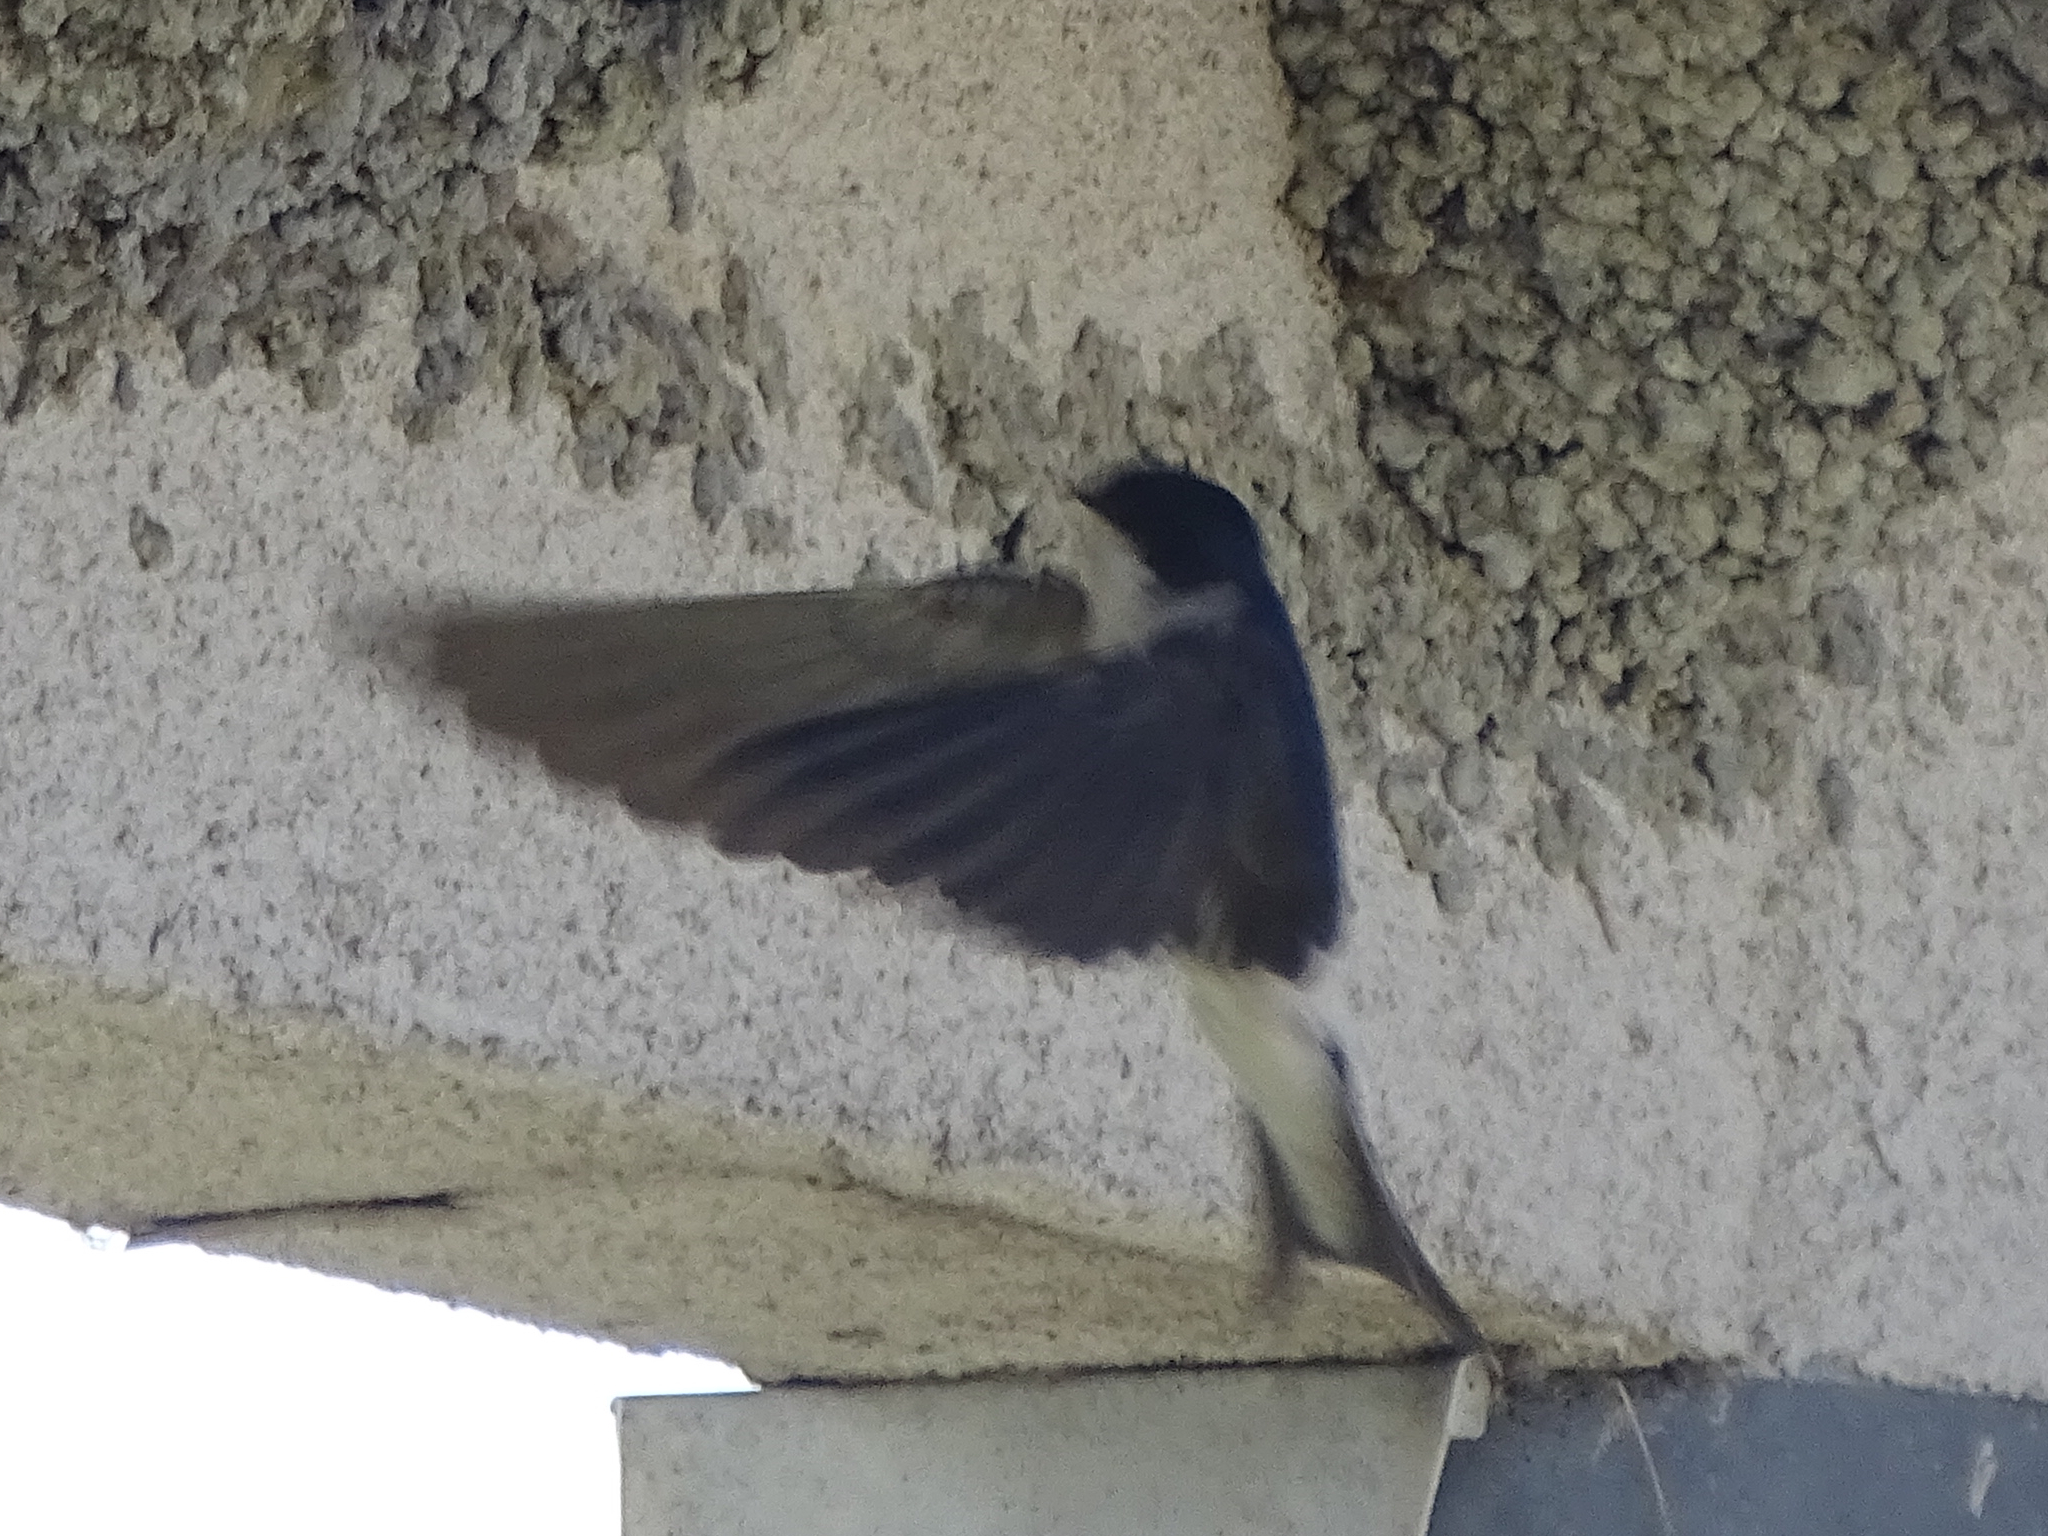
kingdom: Animalia
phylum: Chordata
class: Aves
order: Passeriformes
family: Hirundinidae
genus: Delichon
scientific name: Delichon urbicum
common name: Common house martin
